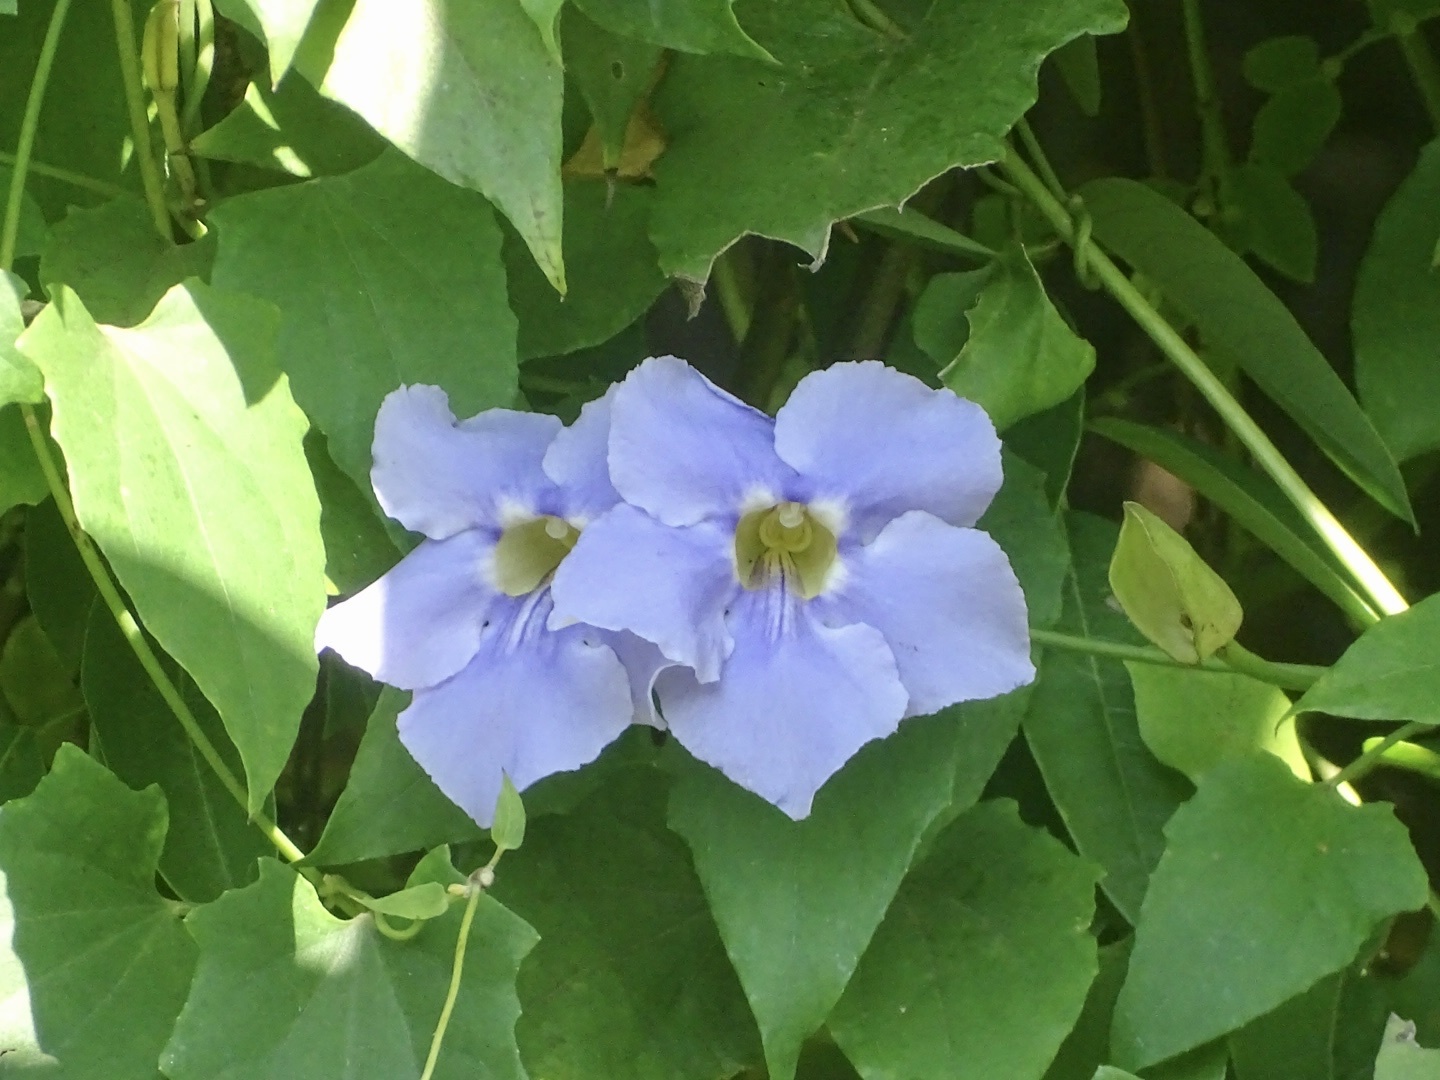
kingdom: Plantae
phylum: Tracheophyta
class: Magnoliopsida
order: Lamiales
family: Acanthaceae
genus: Thunbergia
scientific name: Thunbergia grandiflora
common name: Bengal trumpet
